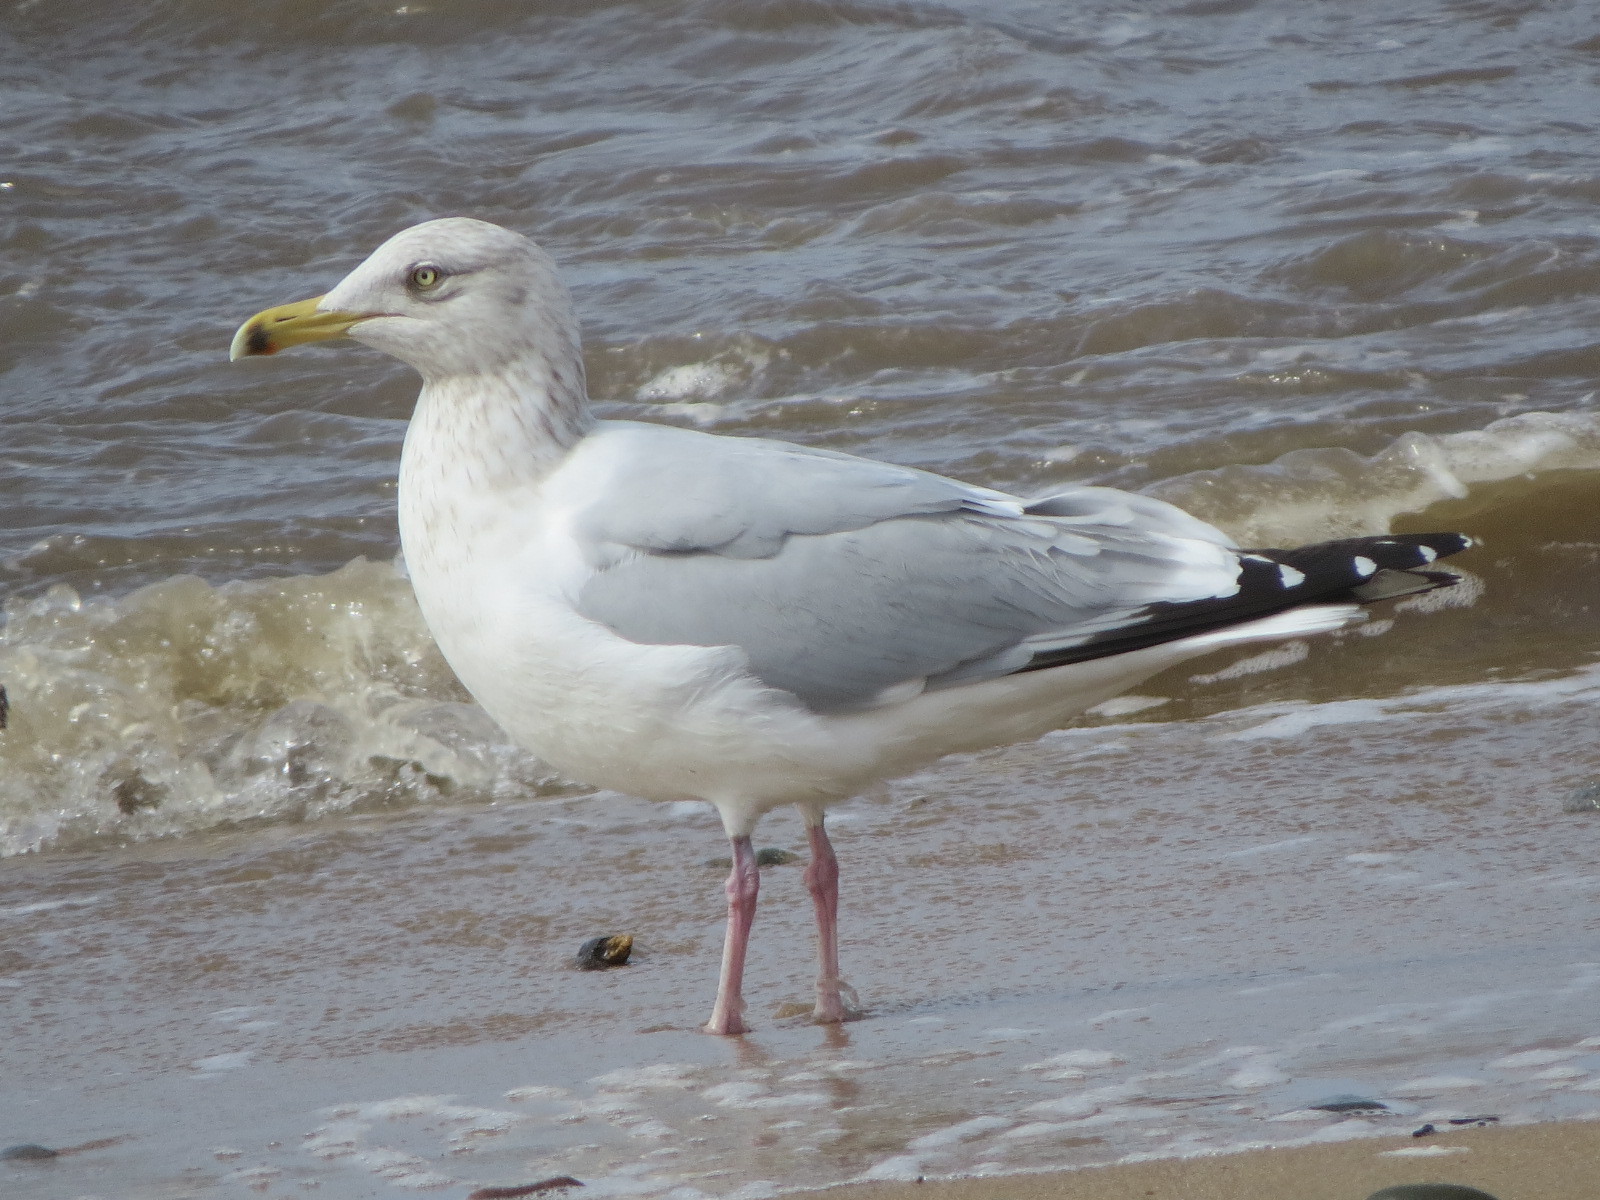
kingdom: Animalia
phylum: Chordata
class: Aves
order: Charadriiformes
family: Laridae
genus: Larus
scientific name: Larus argentatus
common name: Herring gull
